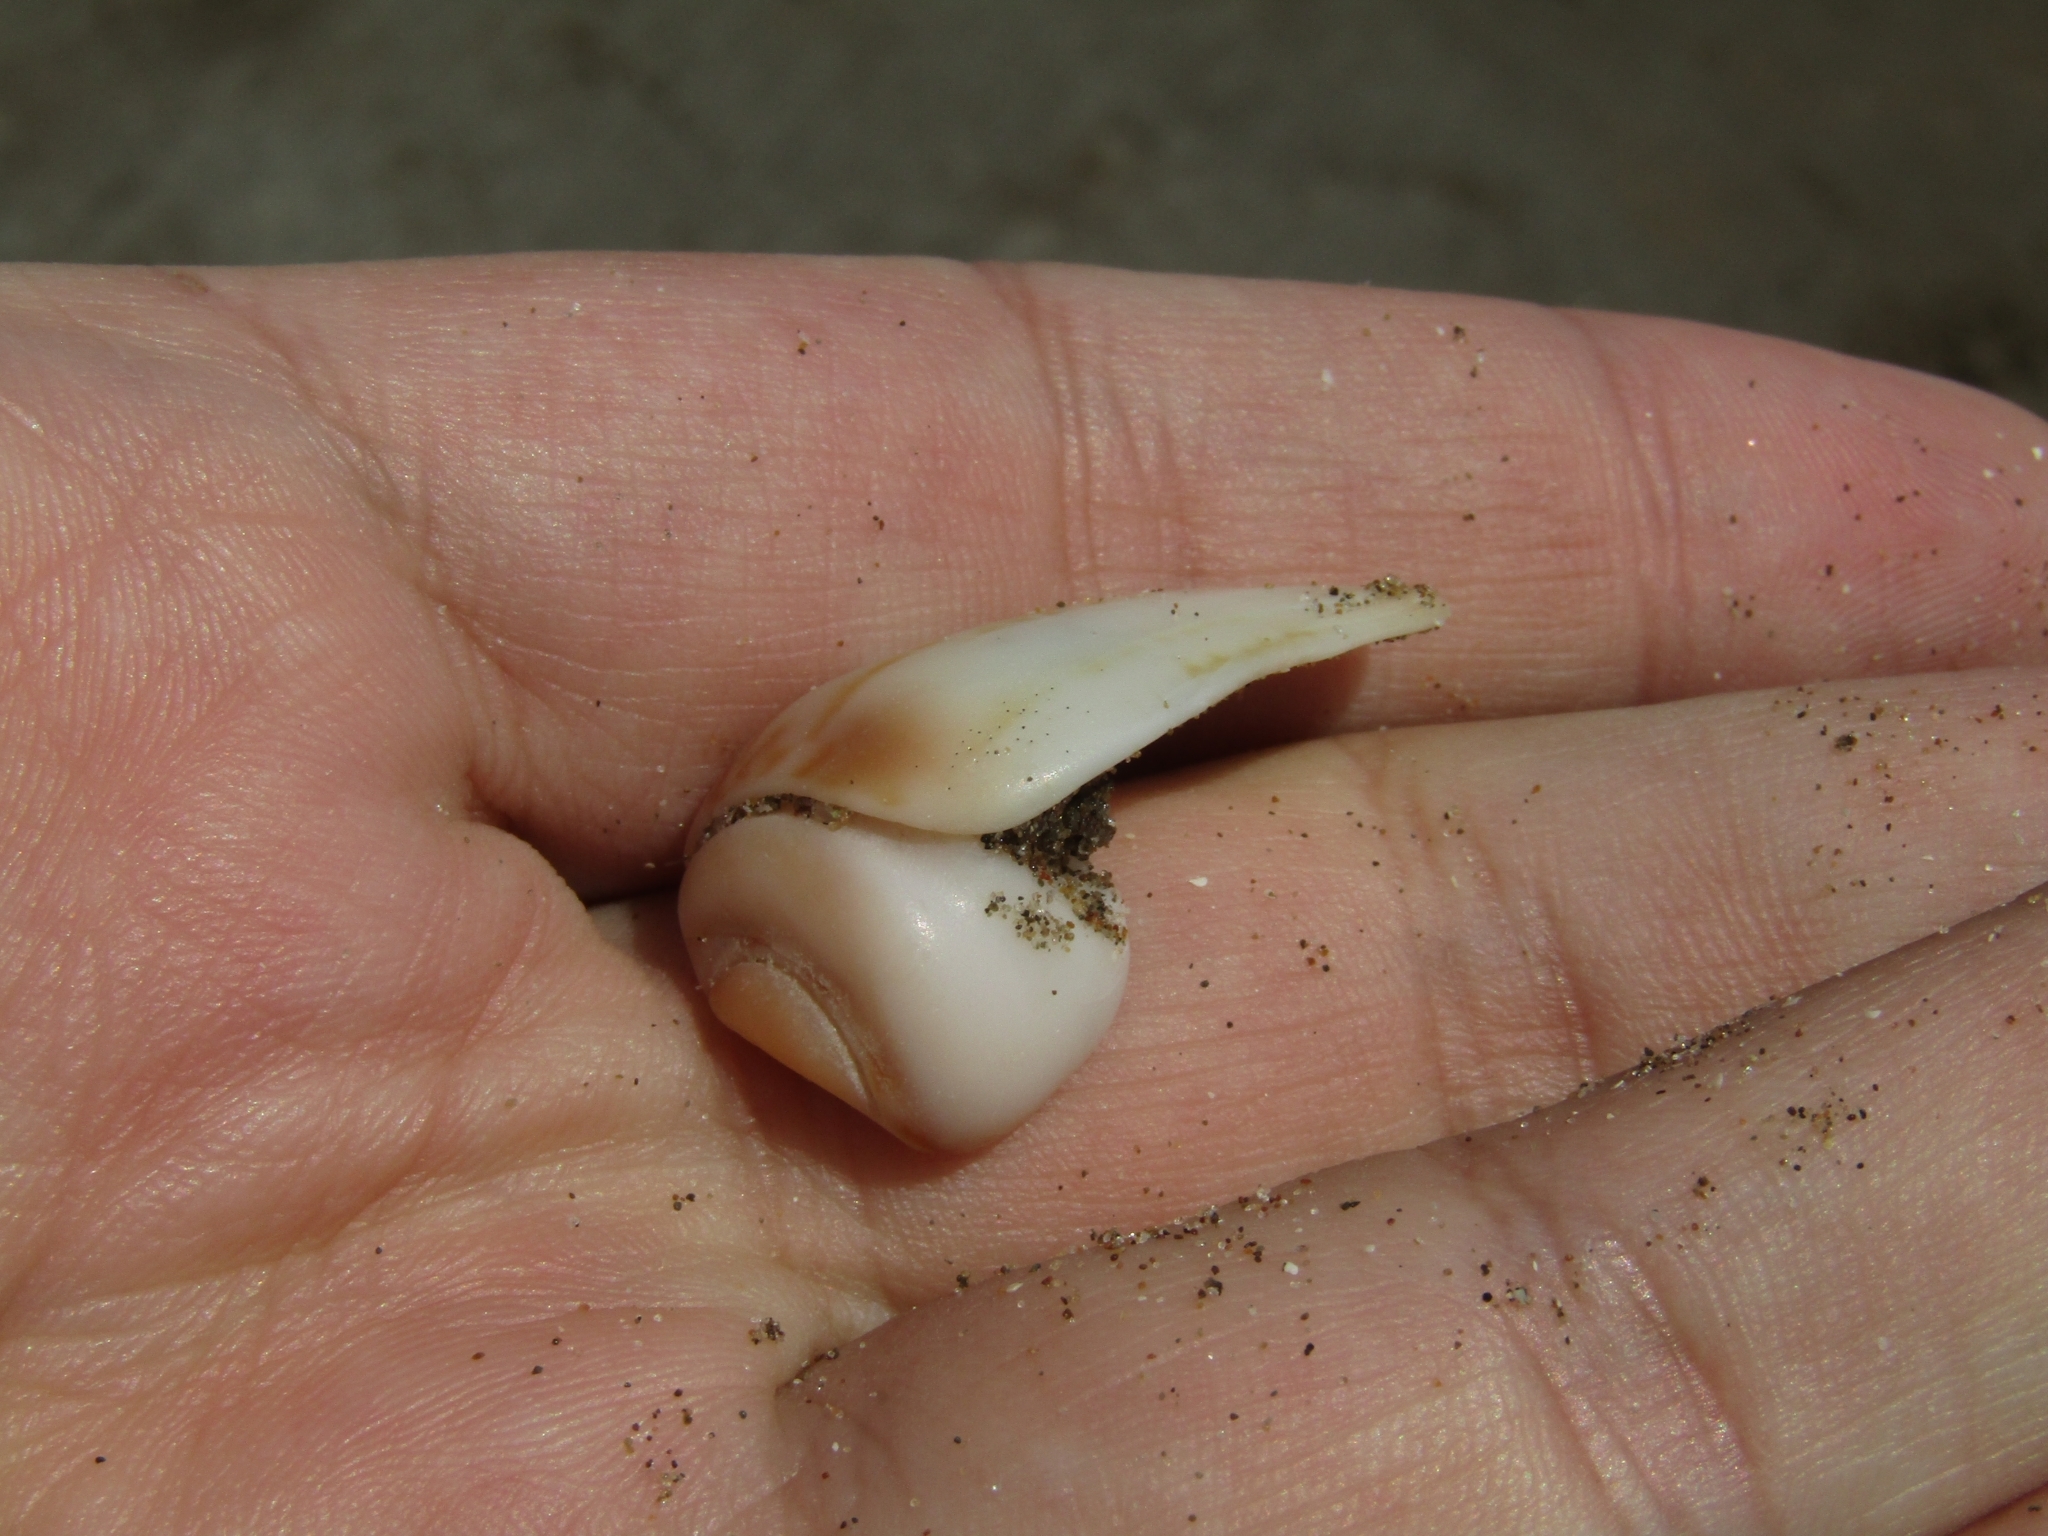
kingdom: Animalia
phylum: Mollusca
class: Gastropoda
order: Neogastropoda
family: Olividae
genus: Olivancillaria
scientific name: Olivancillaria urceus
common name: Bear ancilla
